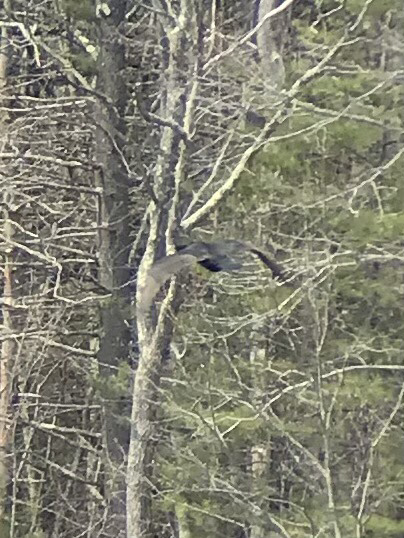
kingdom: Animalia
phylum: Chordata
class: Aves
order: Suliformes
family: Phalacrocoracidae
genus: Phalacrocorax
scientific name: Phalacrocorax auritus
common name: Double-crested cormorant
